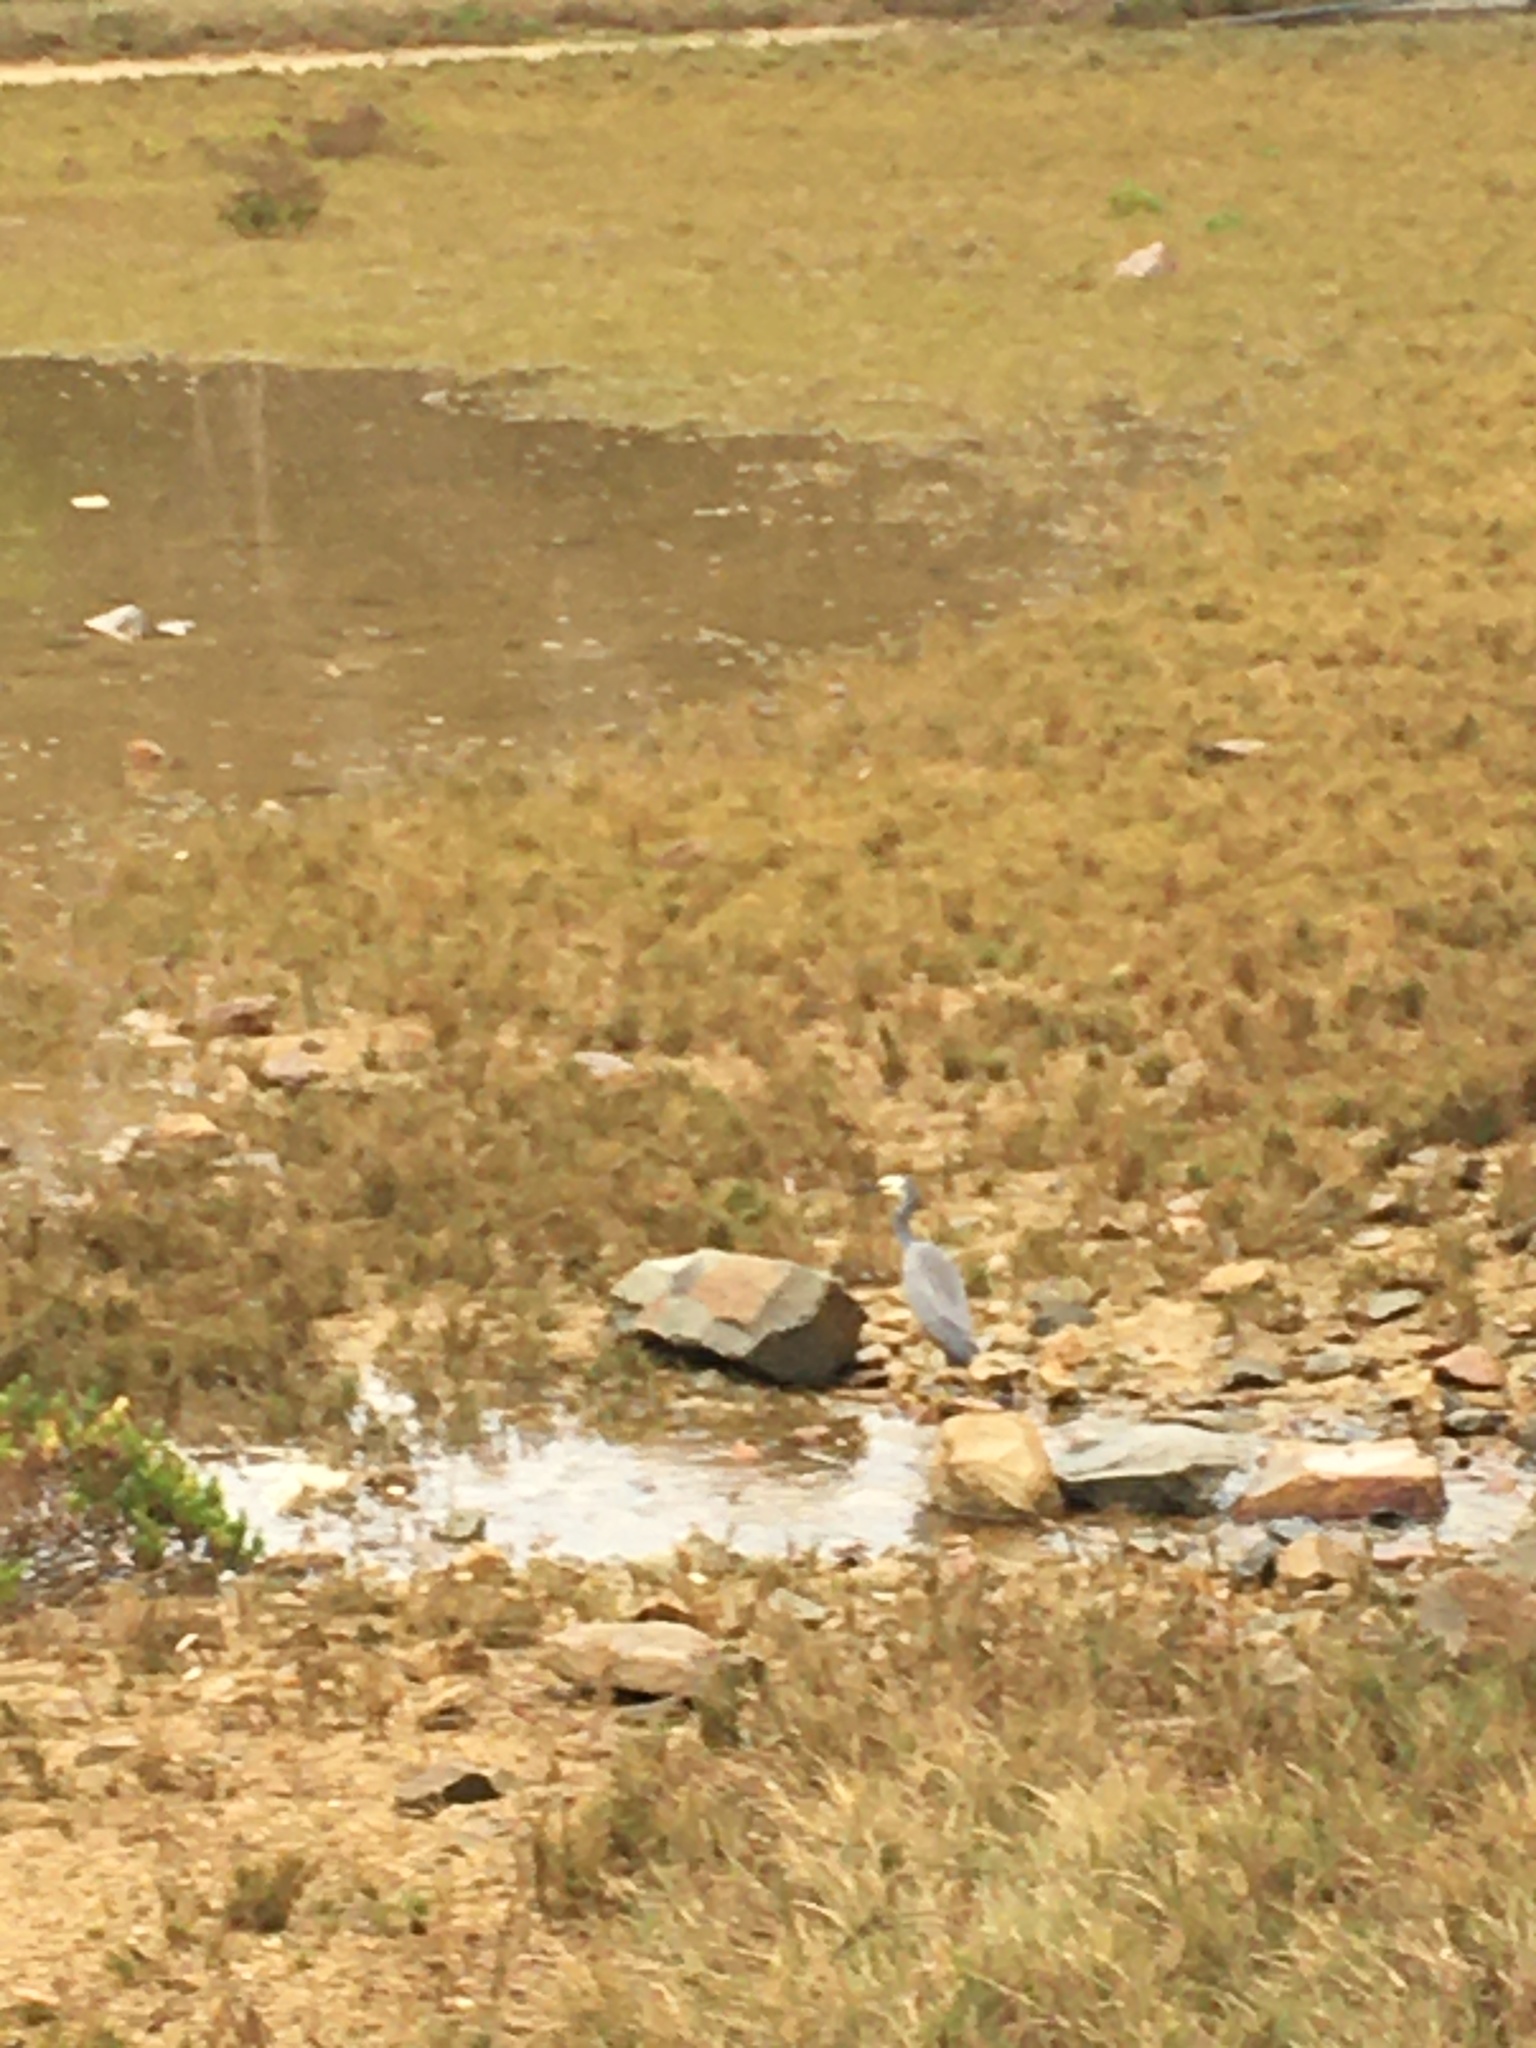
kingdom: Animalia
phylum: Chordata
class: Aves
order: Pelecaniformes
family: Ardeidae
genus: Egretta
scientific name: Egretta novaehollandiae
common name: White-faced heron
